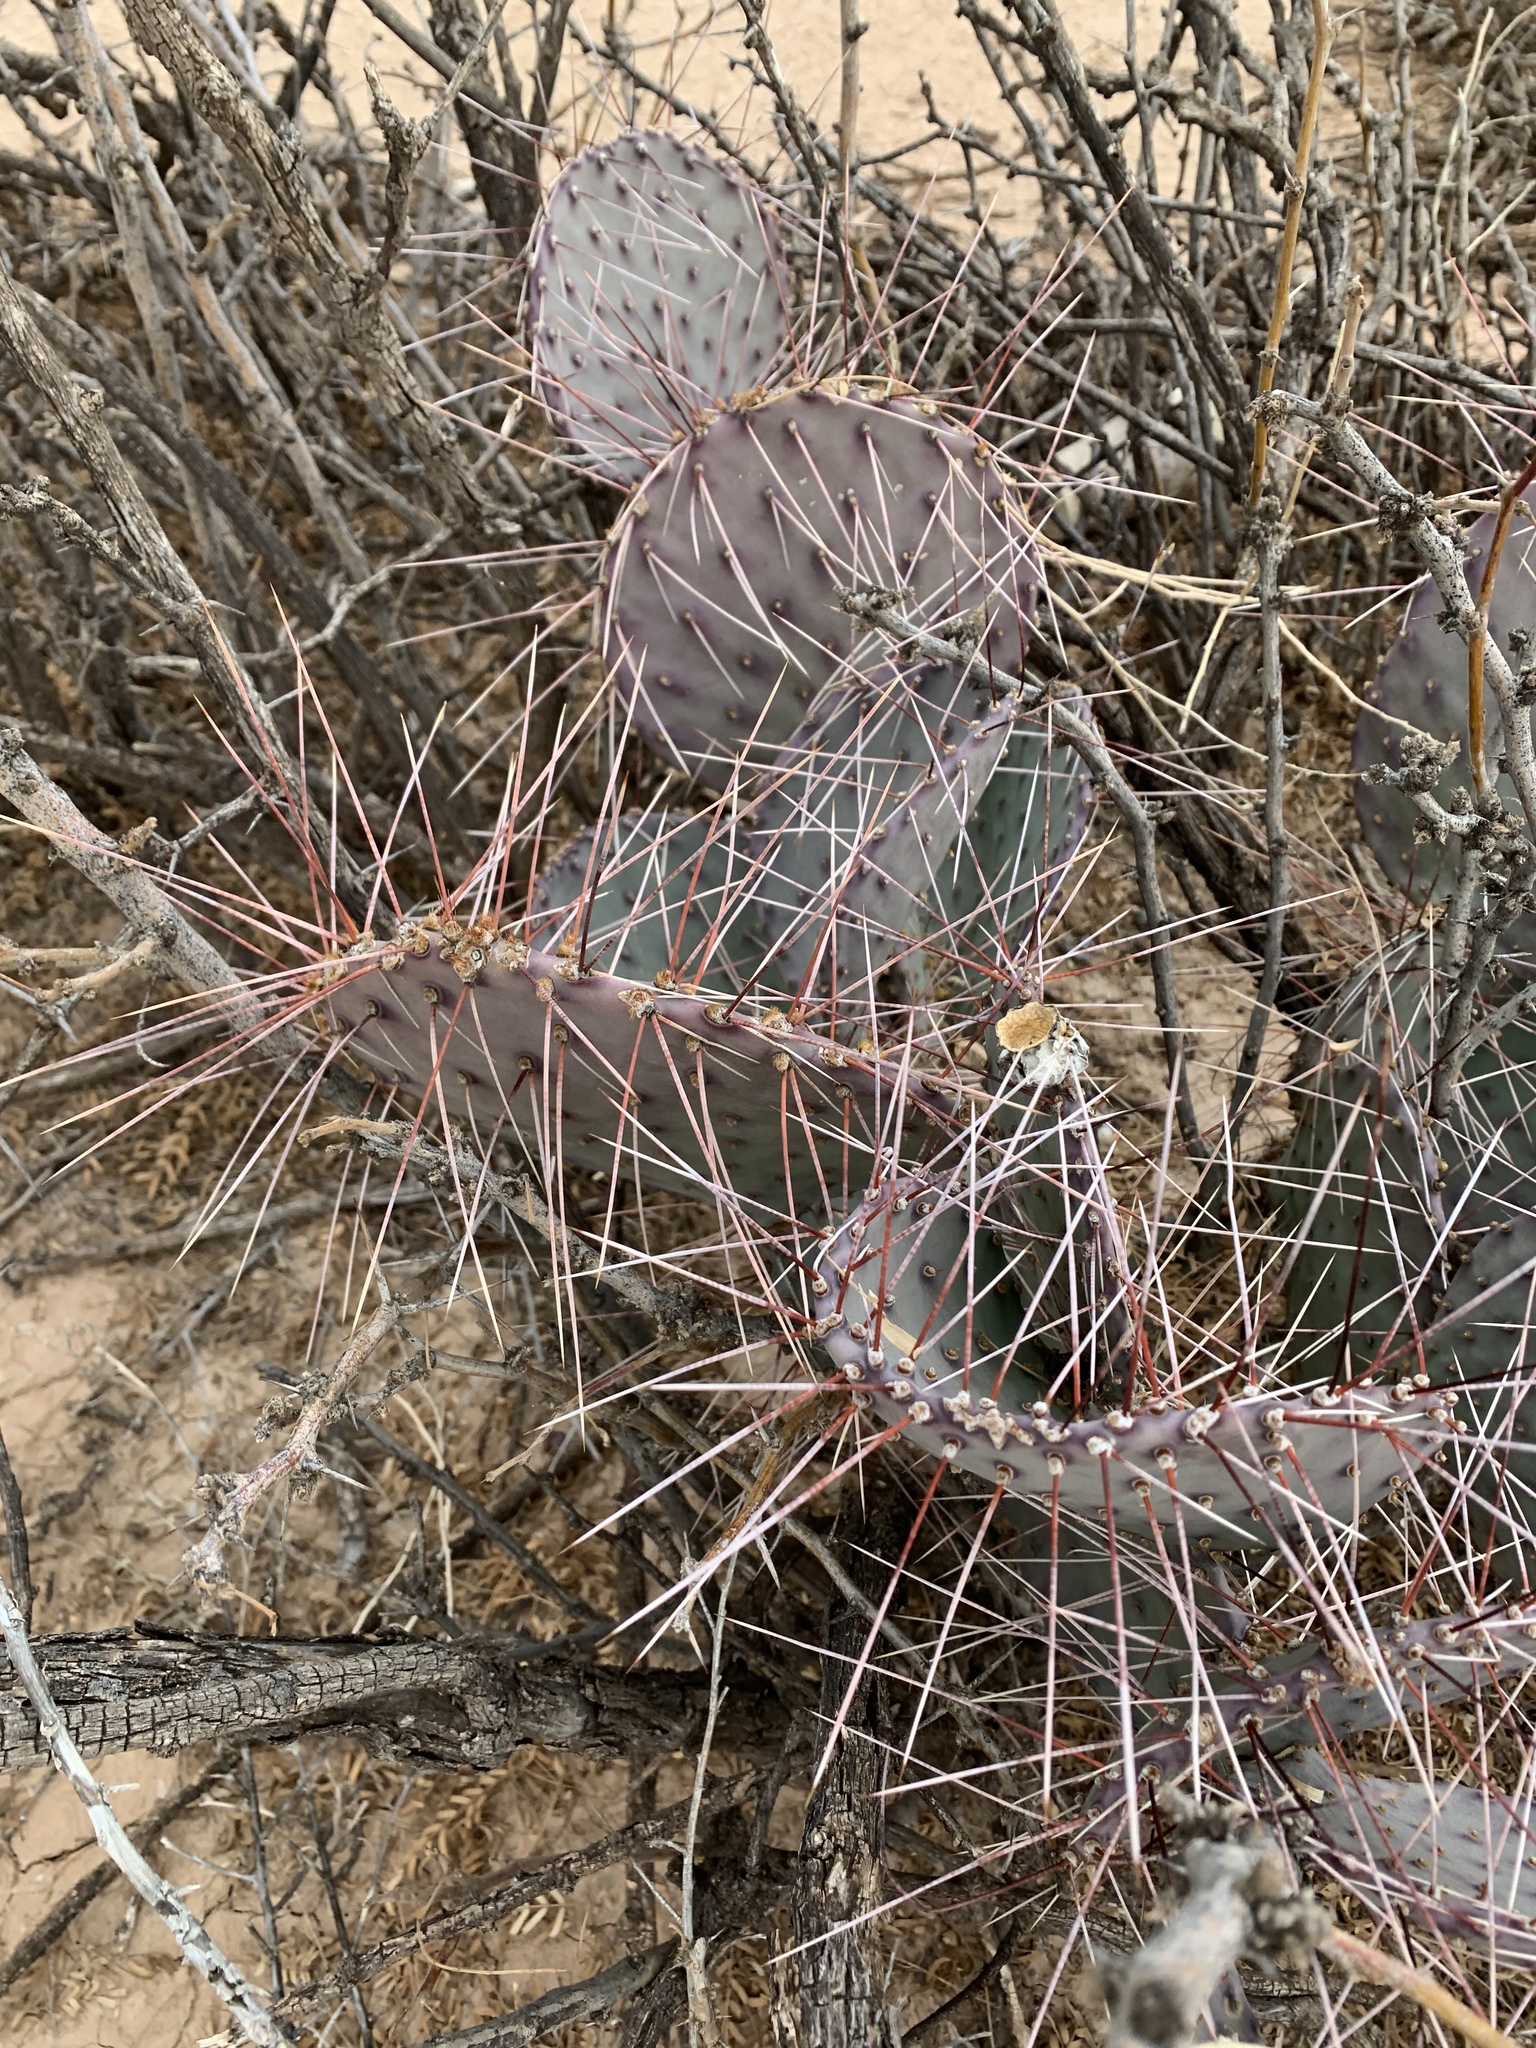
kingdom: Plantae
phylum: Tracheophyta
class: Magnoliopsida
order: Caryophyllales
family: Cactaceae
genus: Opuntia
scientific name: Opuntia macrocentra
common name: Purple prickly-pear
